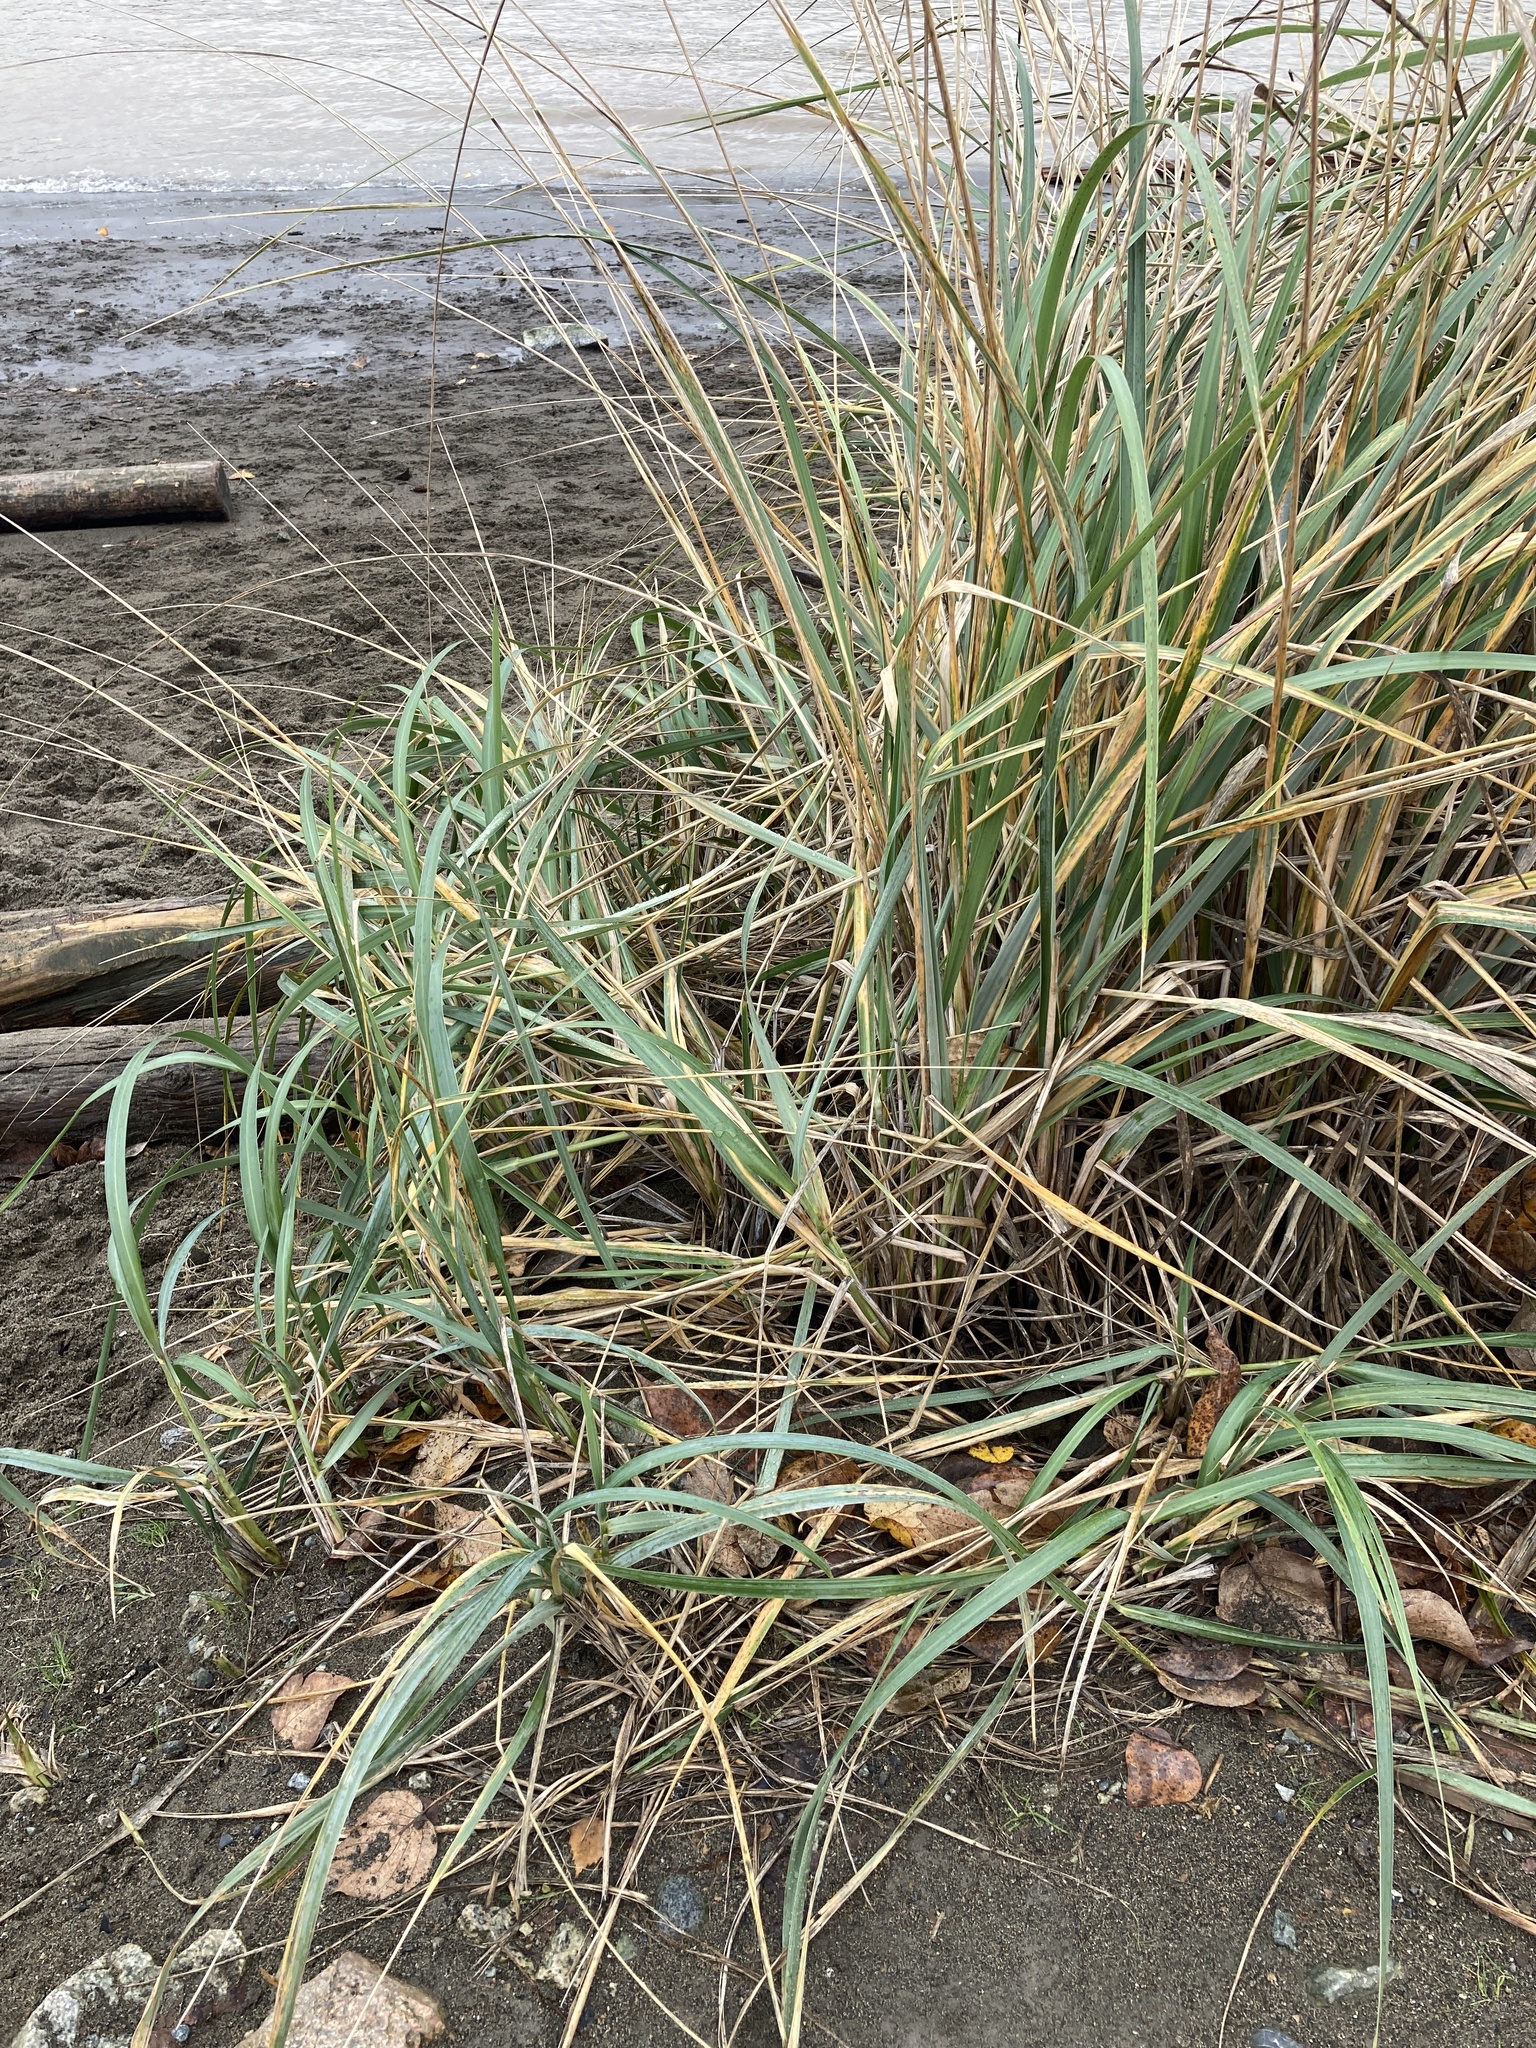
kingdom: Plantae
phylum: Tracheophyta
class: Liliopsida
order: Poales
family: Poaceae
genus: Leymus
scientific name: Leymus mollis
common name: American dune grass
